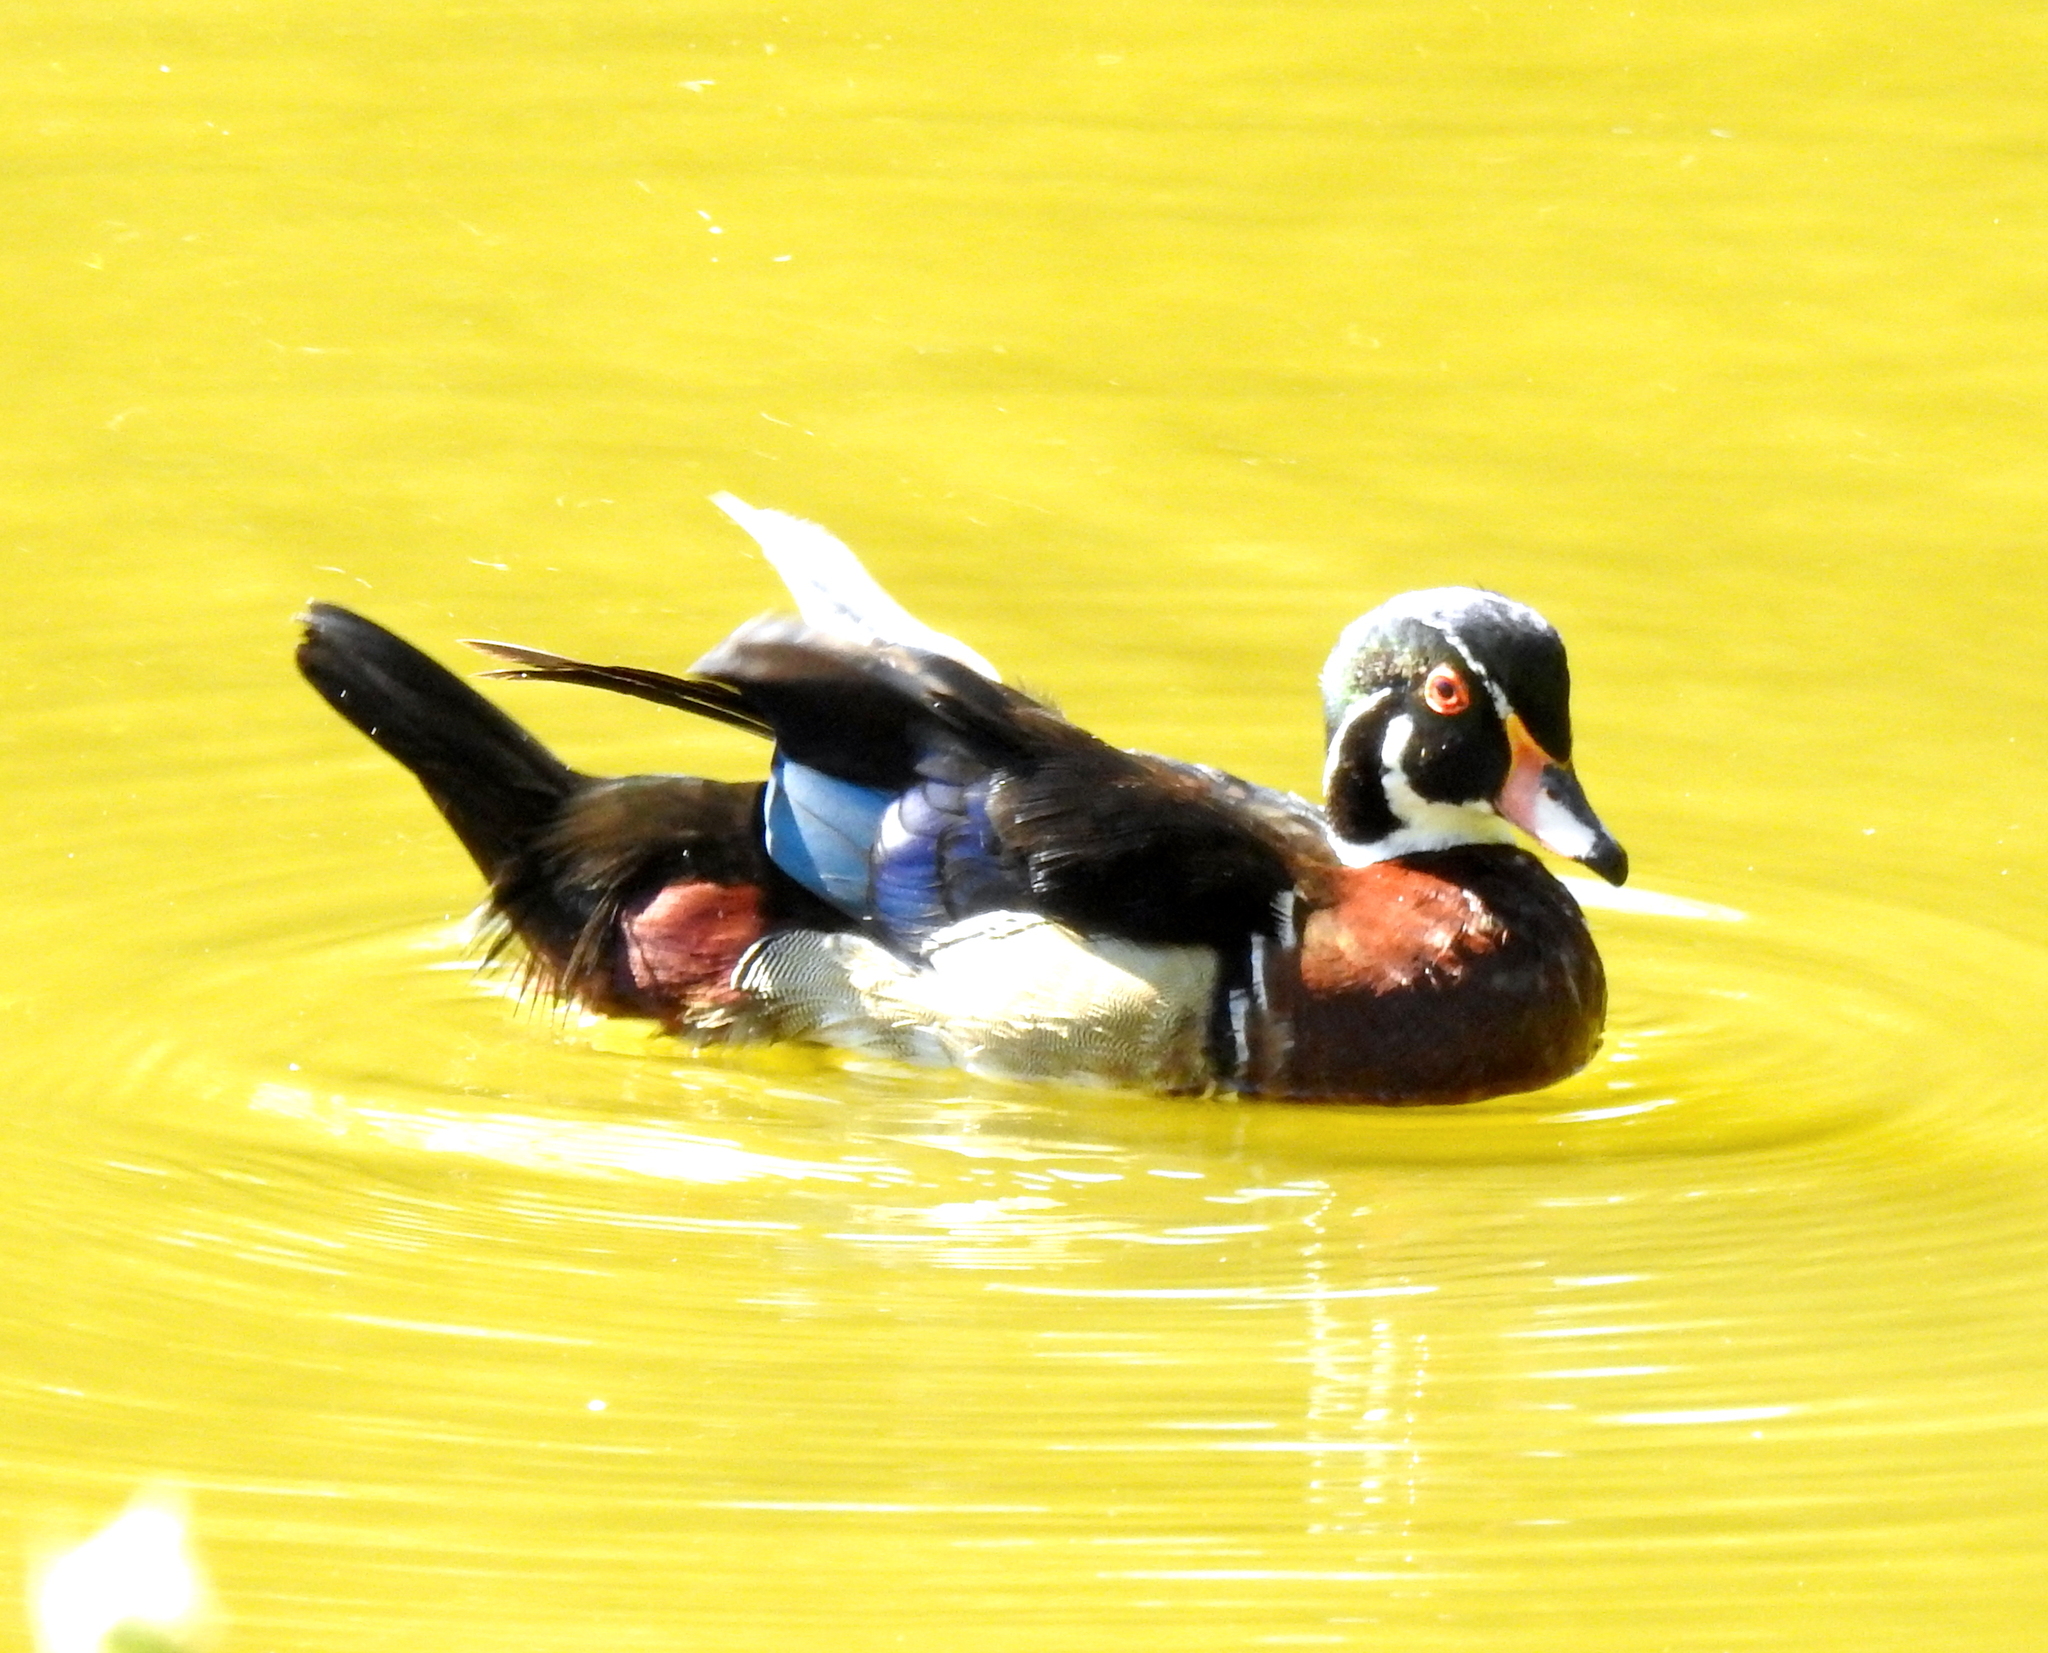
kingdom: Animalia
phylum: Chordata
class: Aves
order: Anseriformes
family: Anatidae
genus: Aix
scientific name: Aix sponsa
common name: Wood duck
